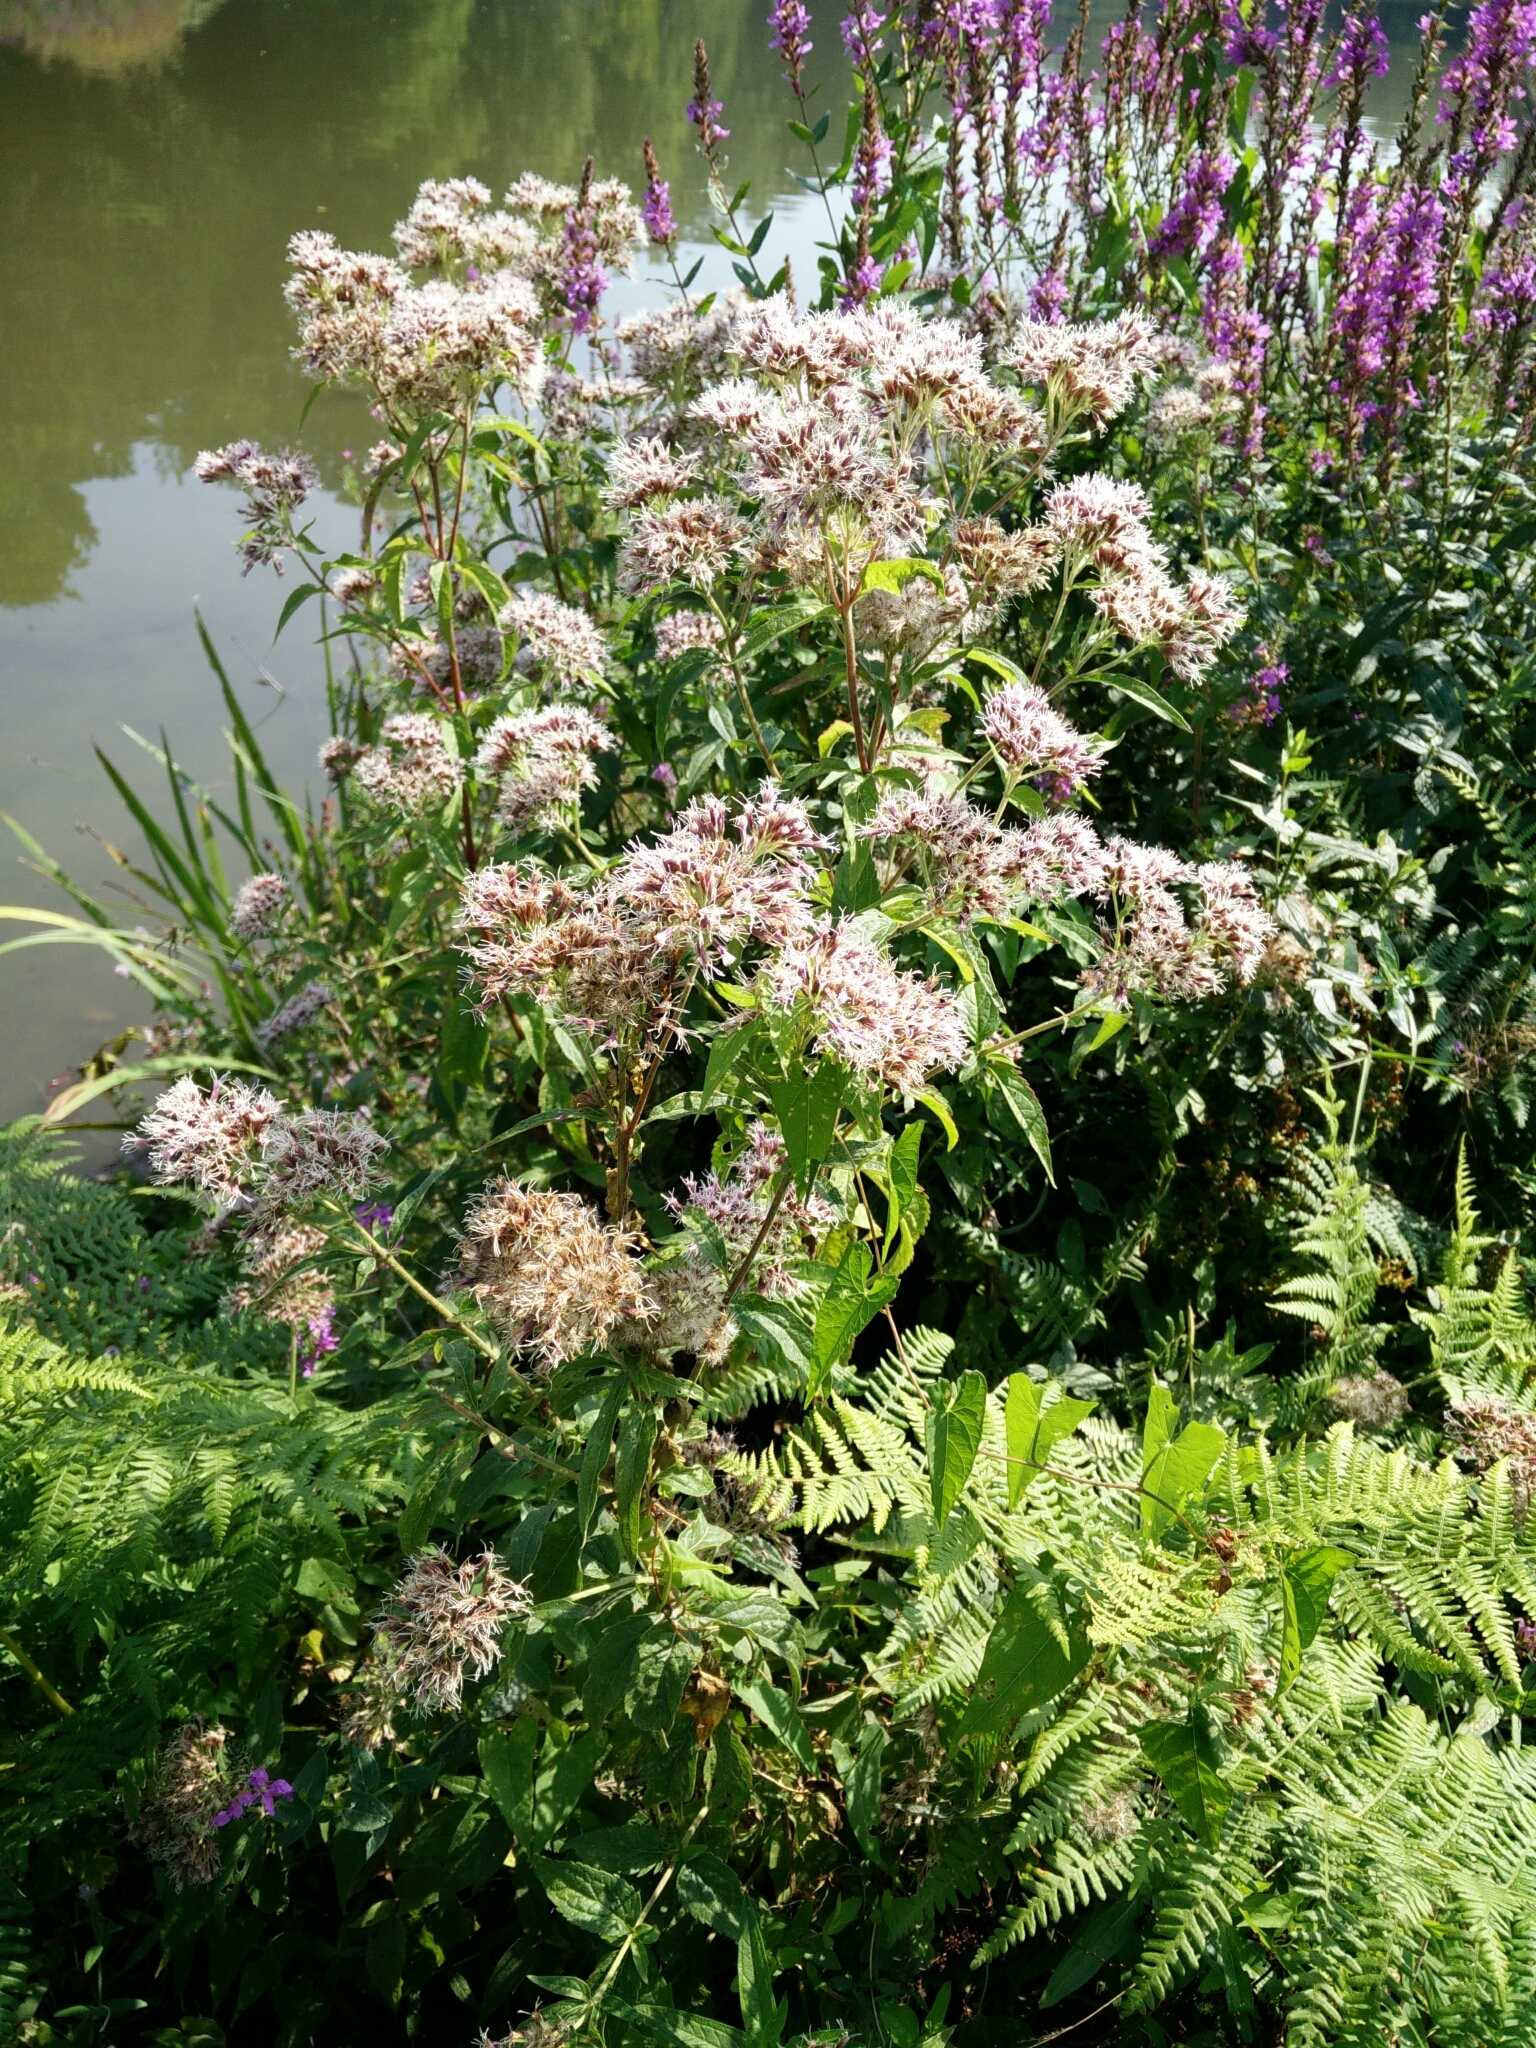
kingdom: Plantae
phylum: Tracheophyta
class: Magnoliopsida
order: Asterales
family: Asteraceae
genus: Eupatorium
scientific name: Eupatorium cannabinum
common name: Hemp-agrimony
